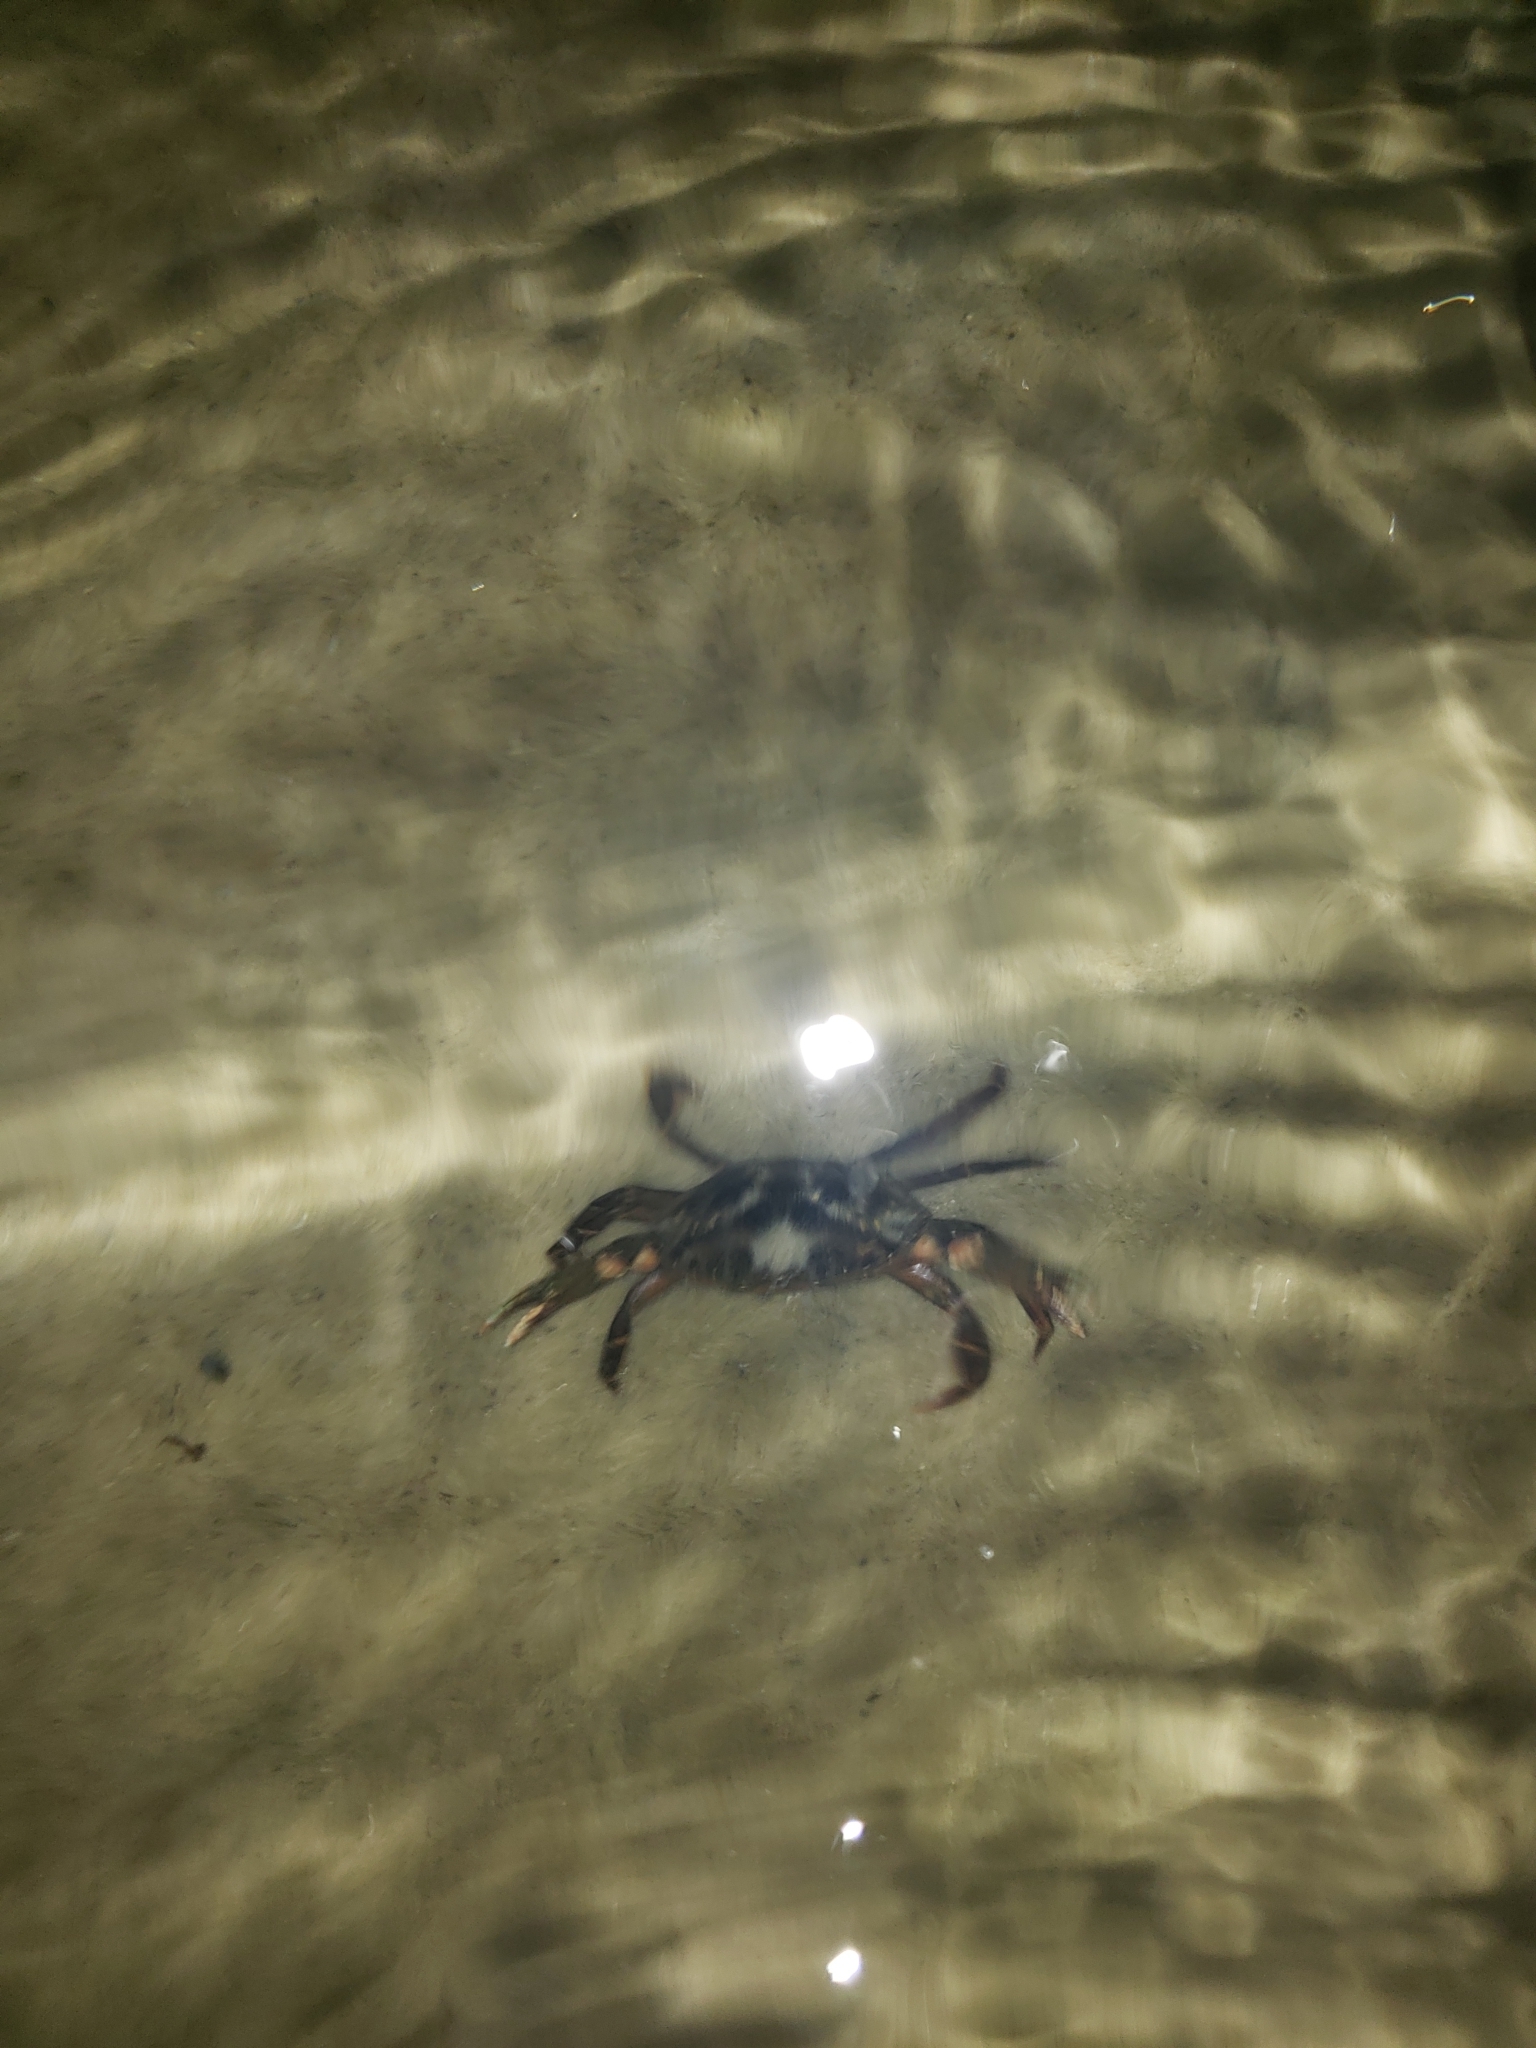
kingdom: Animalia
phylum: Arthropoda
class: Malacostraca
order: Decapoda
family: Carcinidae
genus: Carcinus
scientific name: Carcinus maenas
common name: European green crab
